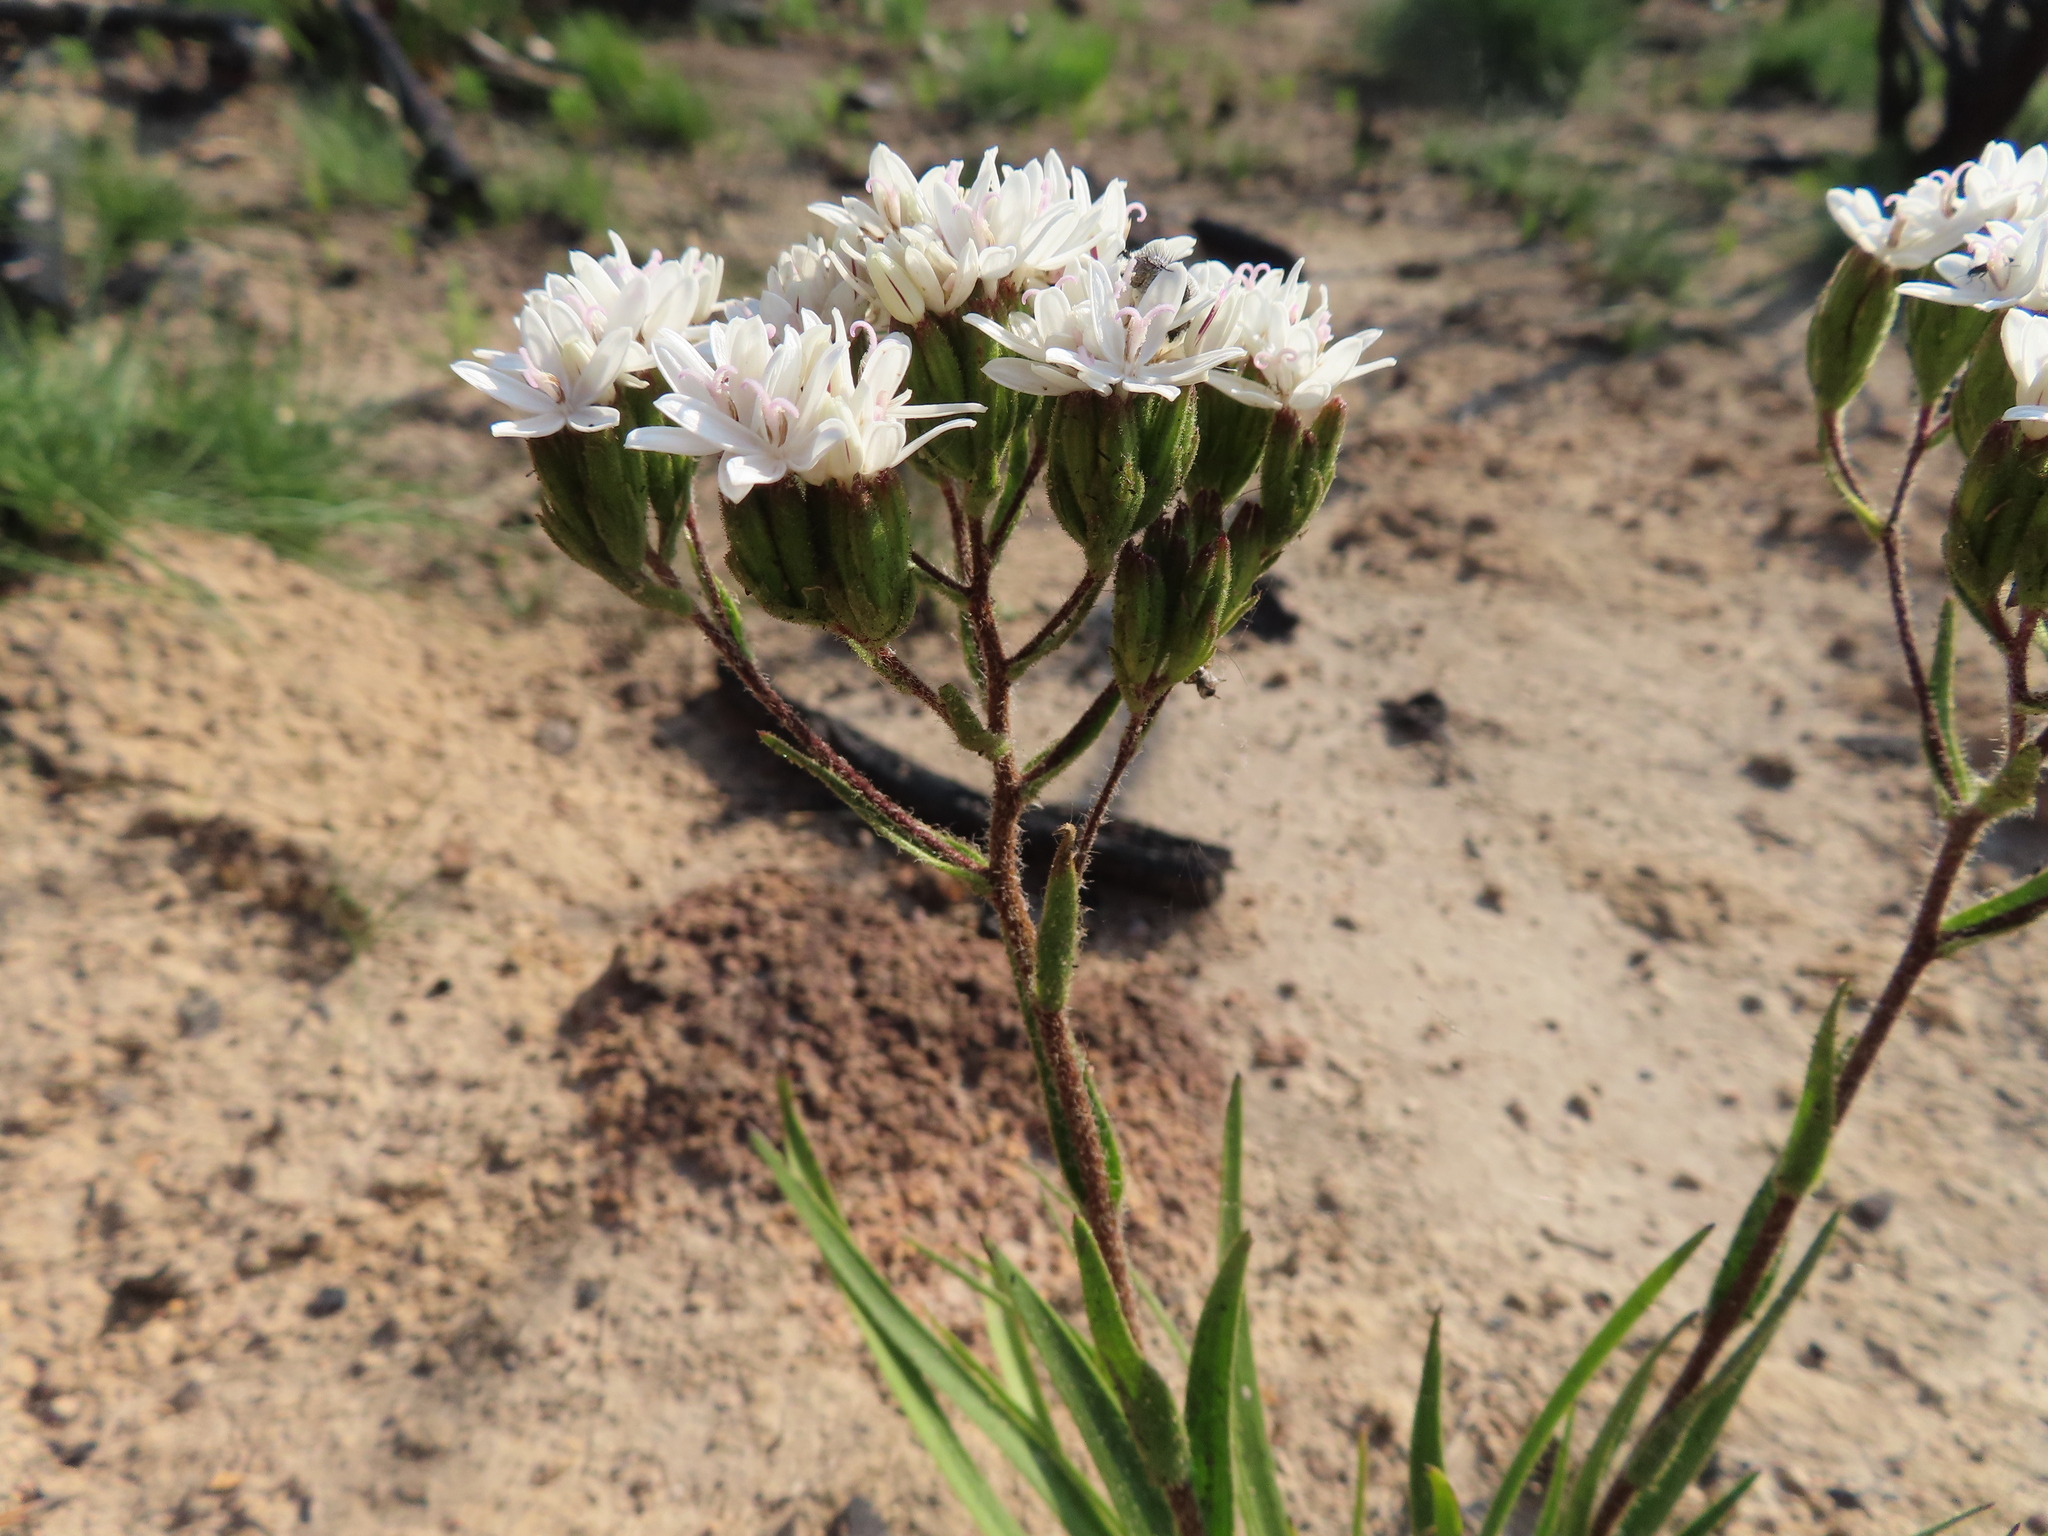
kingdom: Plantae
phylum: Tracheophyta
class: Magnoliopsida
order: Asterales
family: Asteraceae
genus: Corymbium
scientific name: Corymbium villosum
